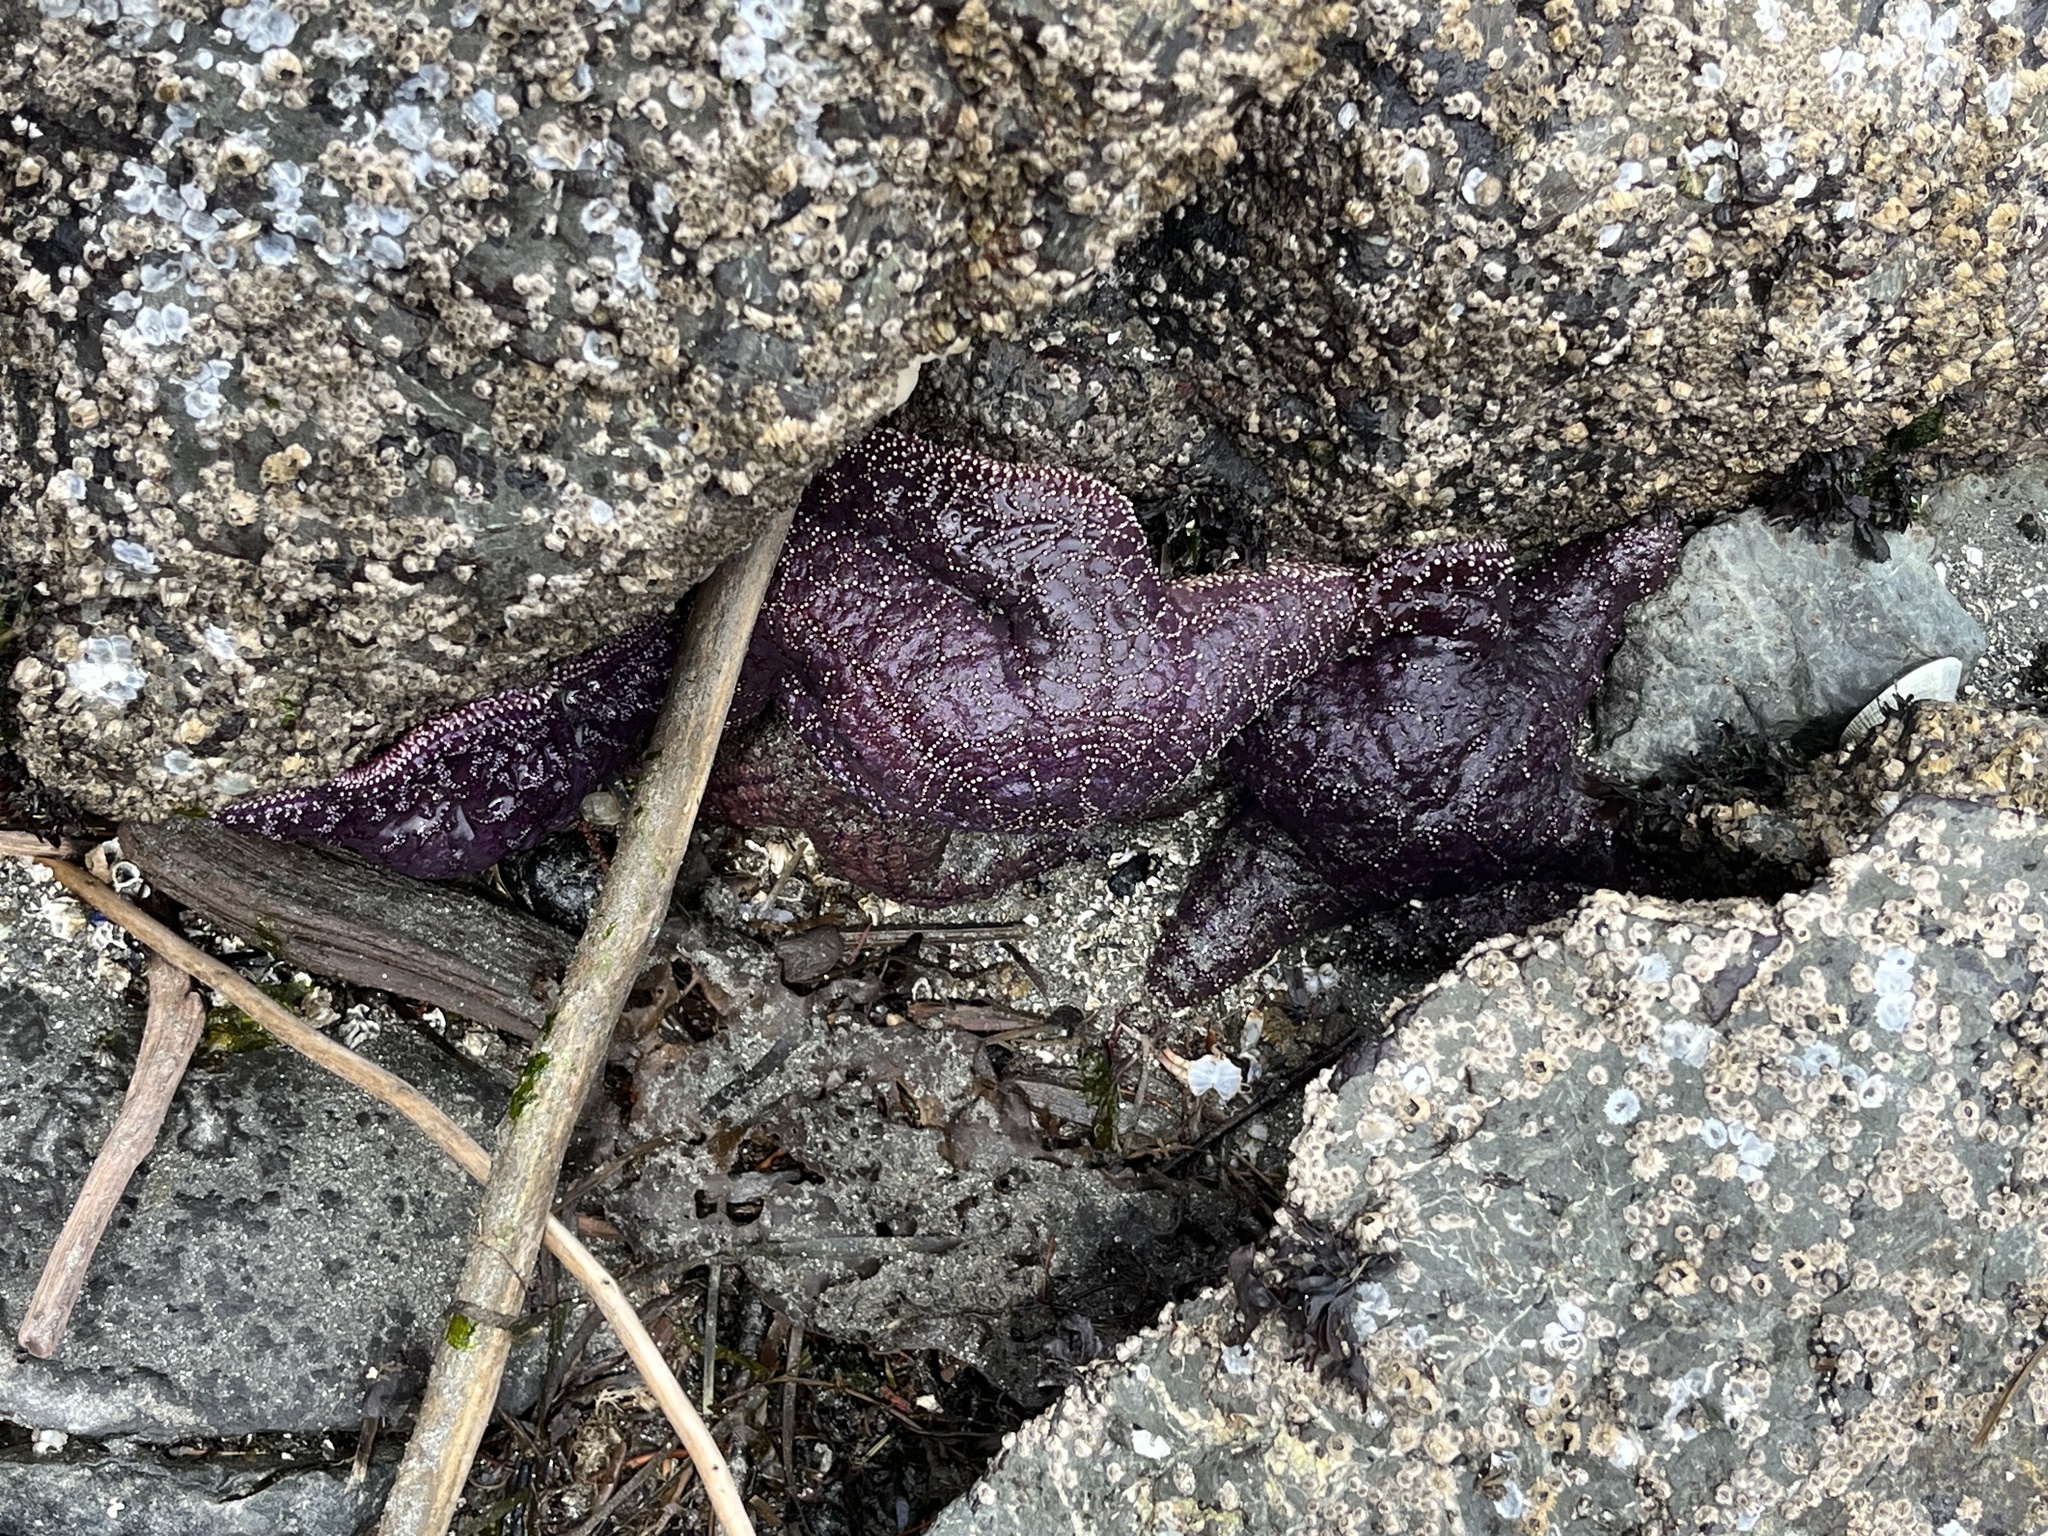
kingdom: Animalia
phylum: Echinodermata
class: Asteroidea
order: Forcipulatida
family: Asteriidae
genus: Pisaster
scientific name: Pisaster ochraceus
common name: Ochre stars
